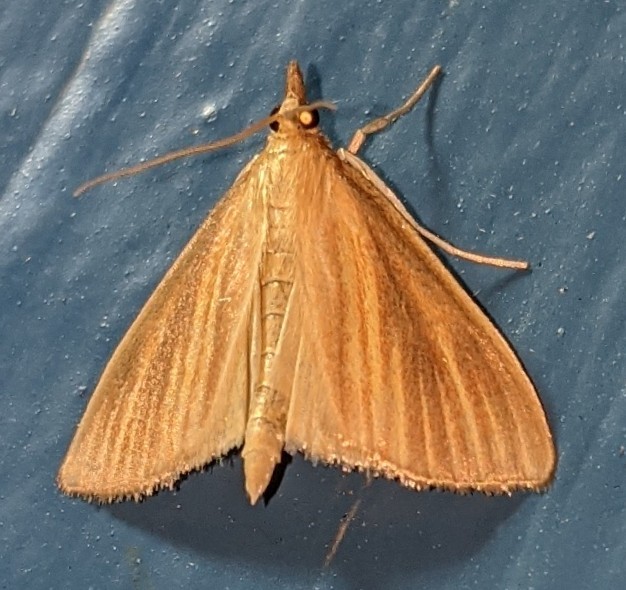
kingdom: Animalia
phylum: Arthropoda
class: Insecta
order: Lepidoptera
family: Crambidae
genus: Nascia
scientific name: Nascia acutellus
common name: Streaked orange moth
